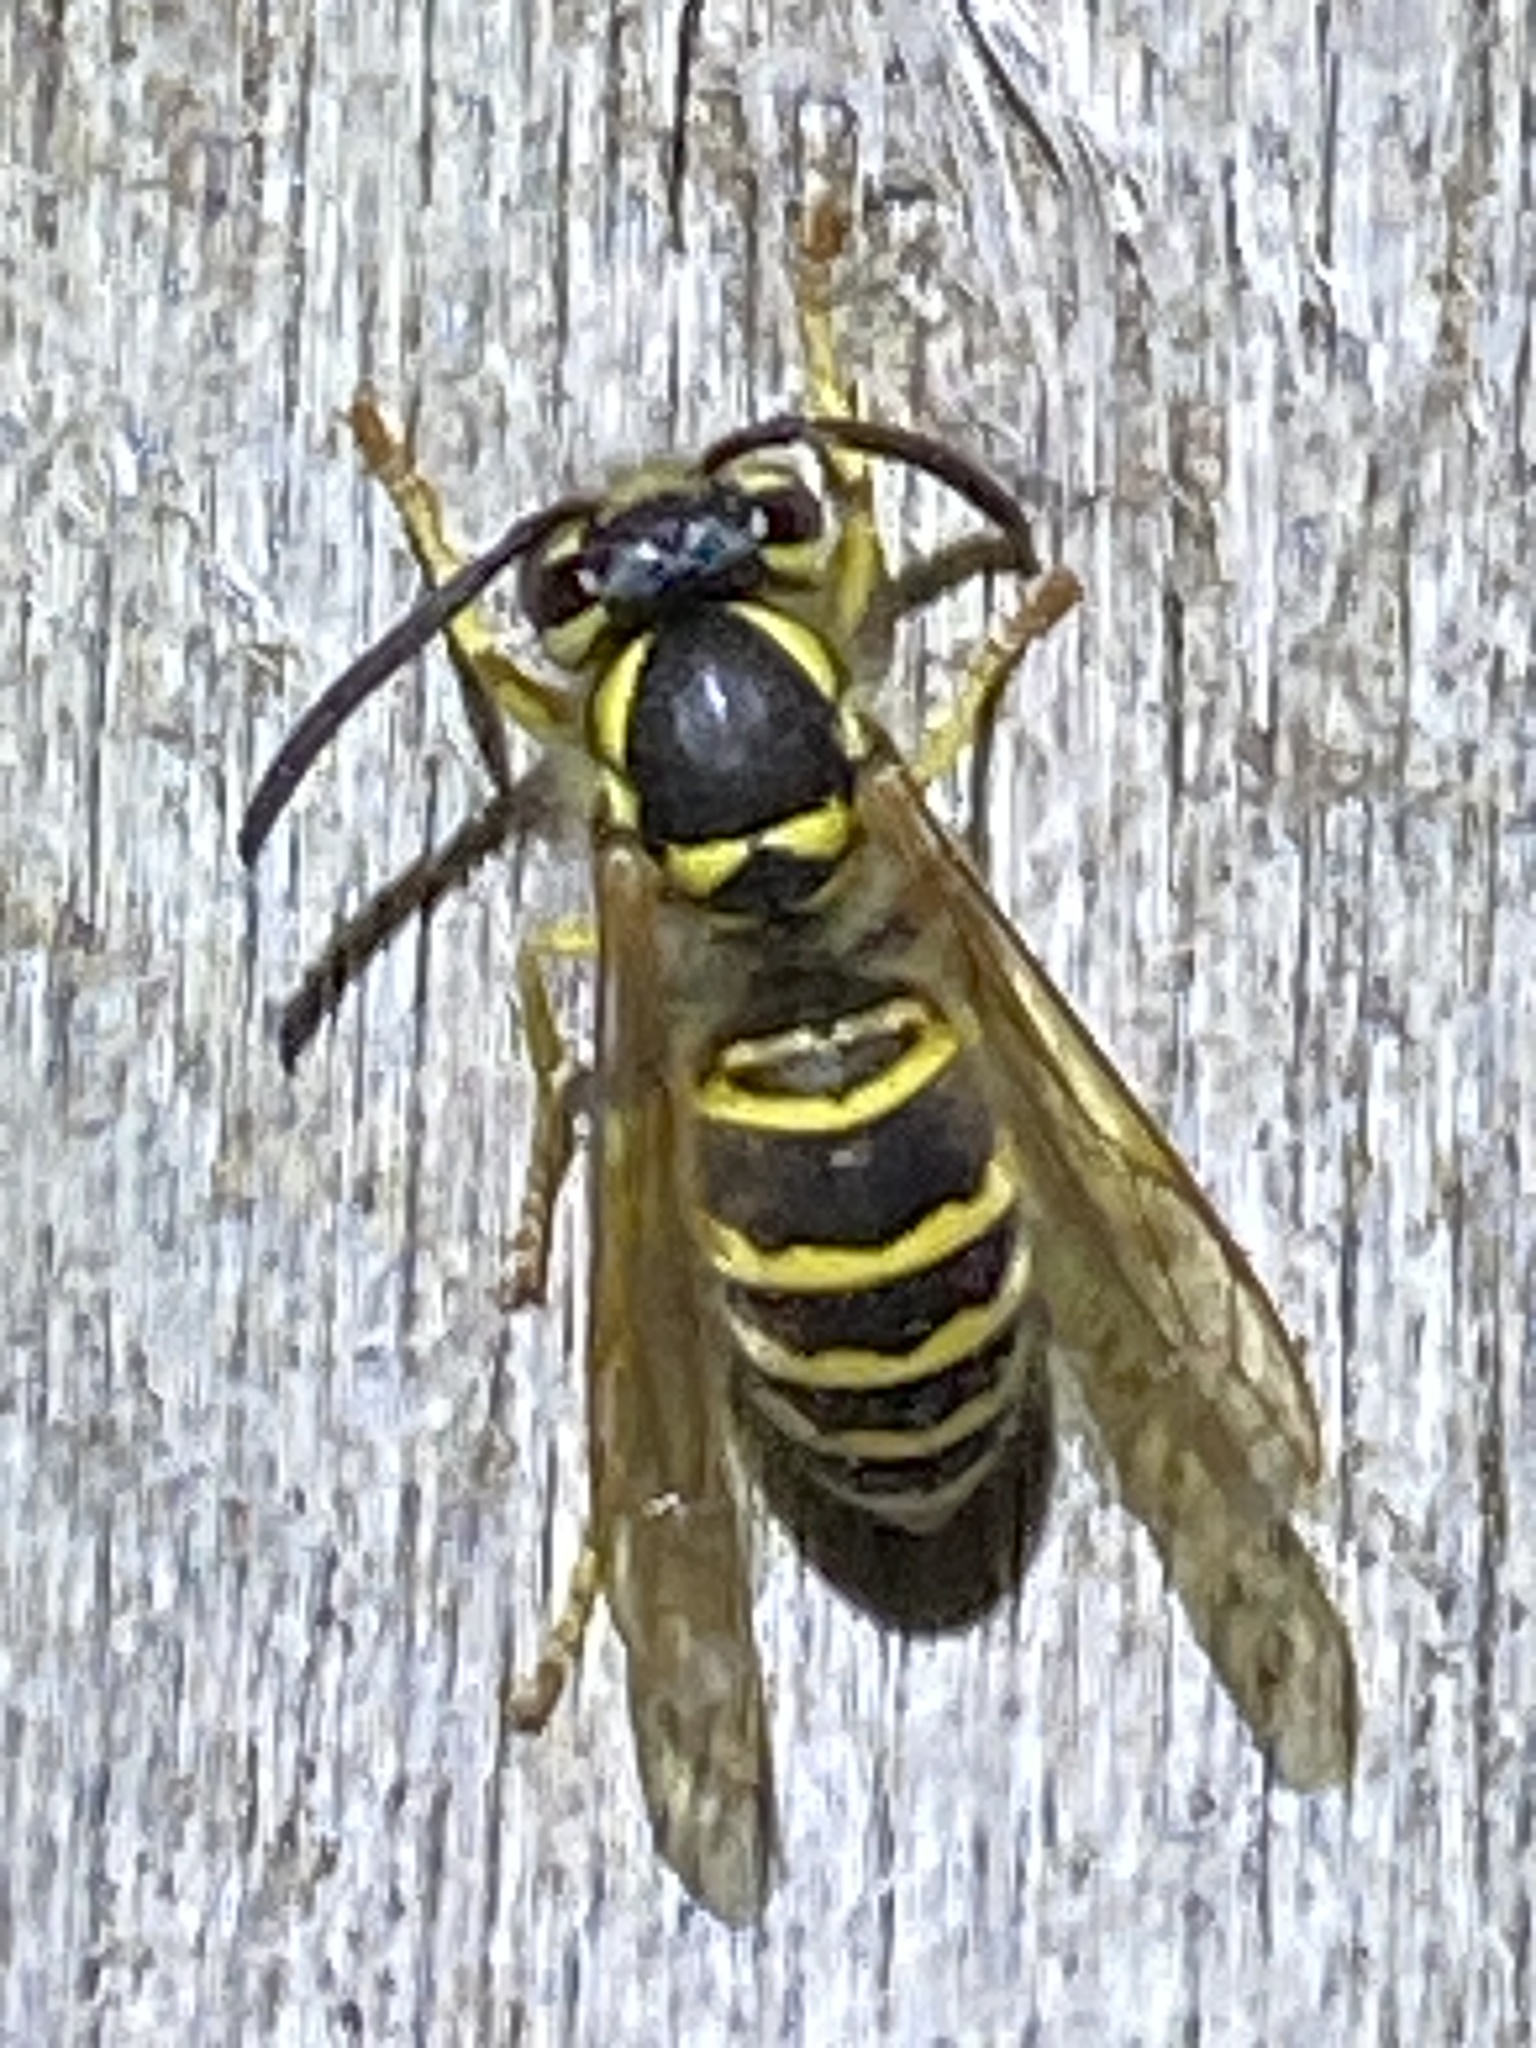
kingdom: Animalia
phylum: Arthropoda
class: Insecta
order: Hymenoptera
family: Vespidae
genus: Vespula
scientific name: Vespula maculifrons
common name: Eastern yellowjacket
